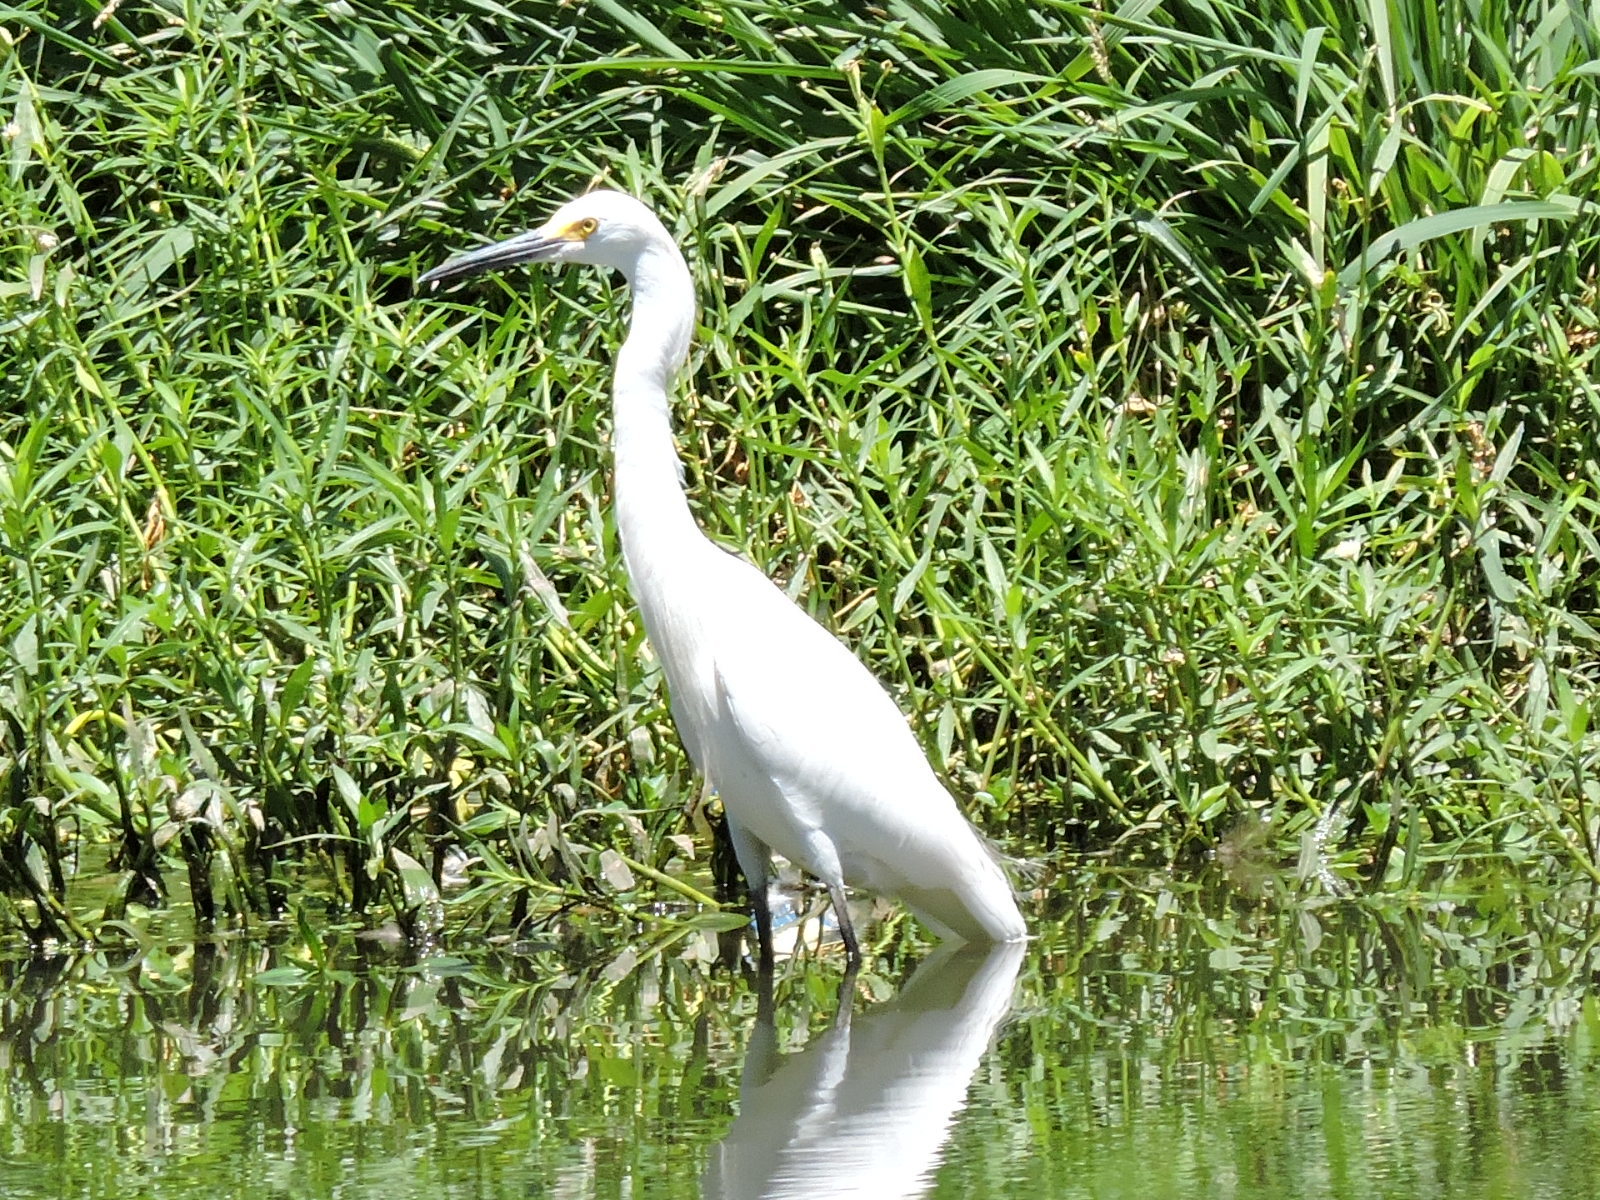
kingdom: Animalia
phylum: Chordata
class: Aves
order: Pelecaniformes
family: Ardeidae
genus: Egretta
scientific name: Egretta thula
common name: Snowy egret
